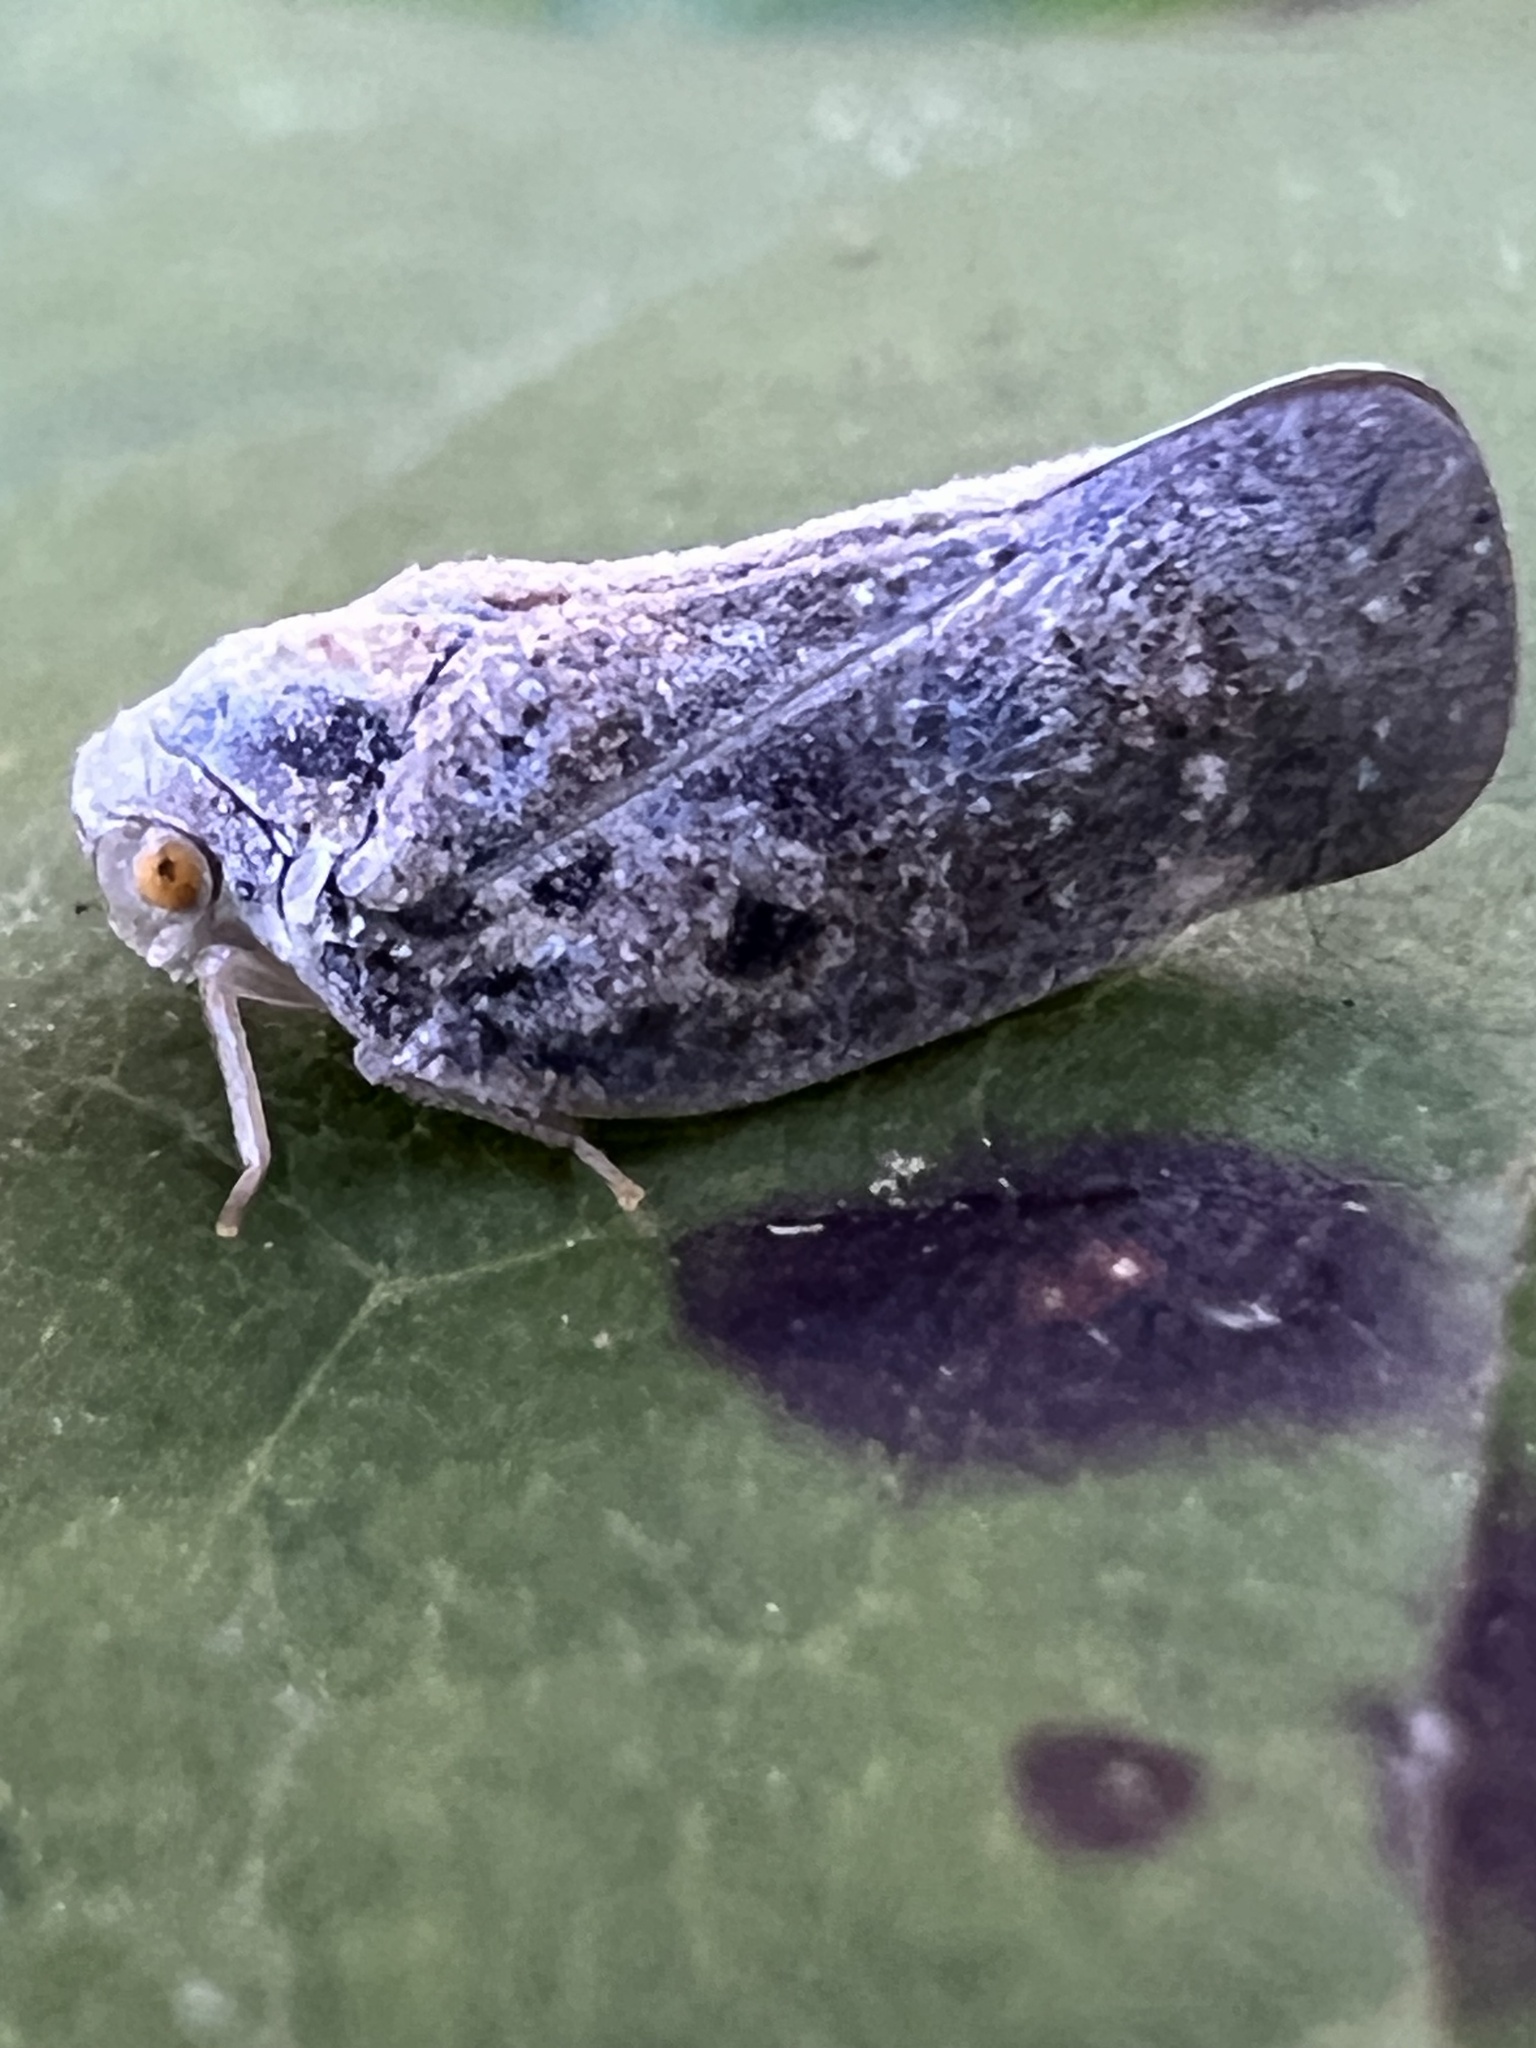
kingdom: Animalia
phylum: Arthropoda
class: Insecta
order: Hemiptera
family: Flatidae
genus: Metcalfa
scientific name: Metcalfa pruinosa
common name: Citrus flatid planthopper
